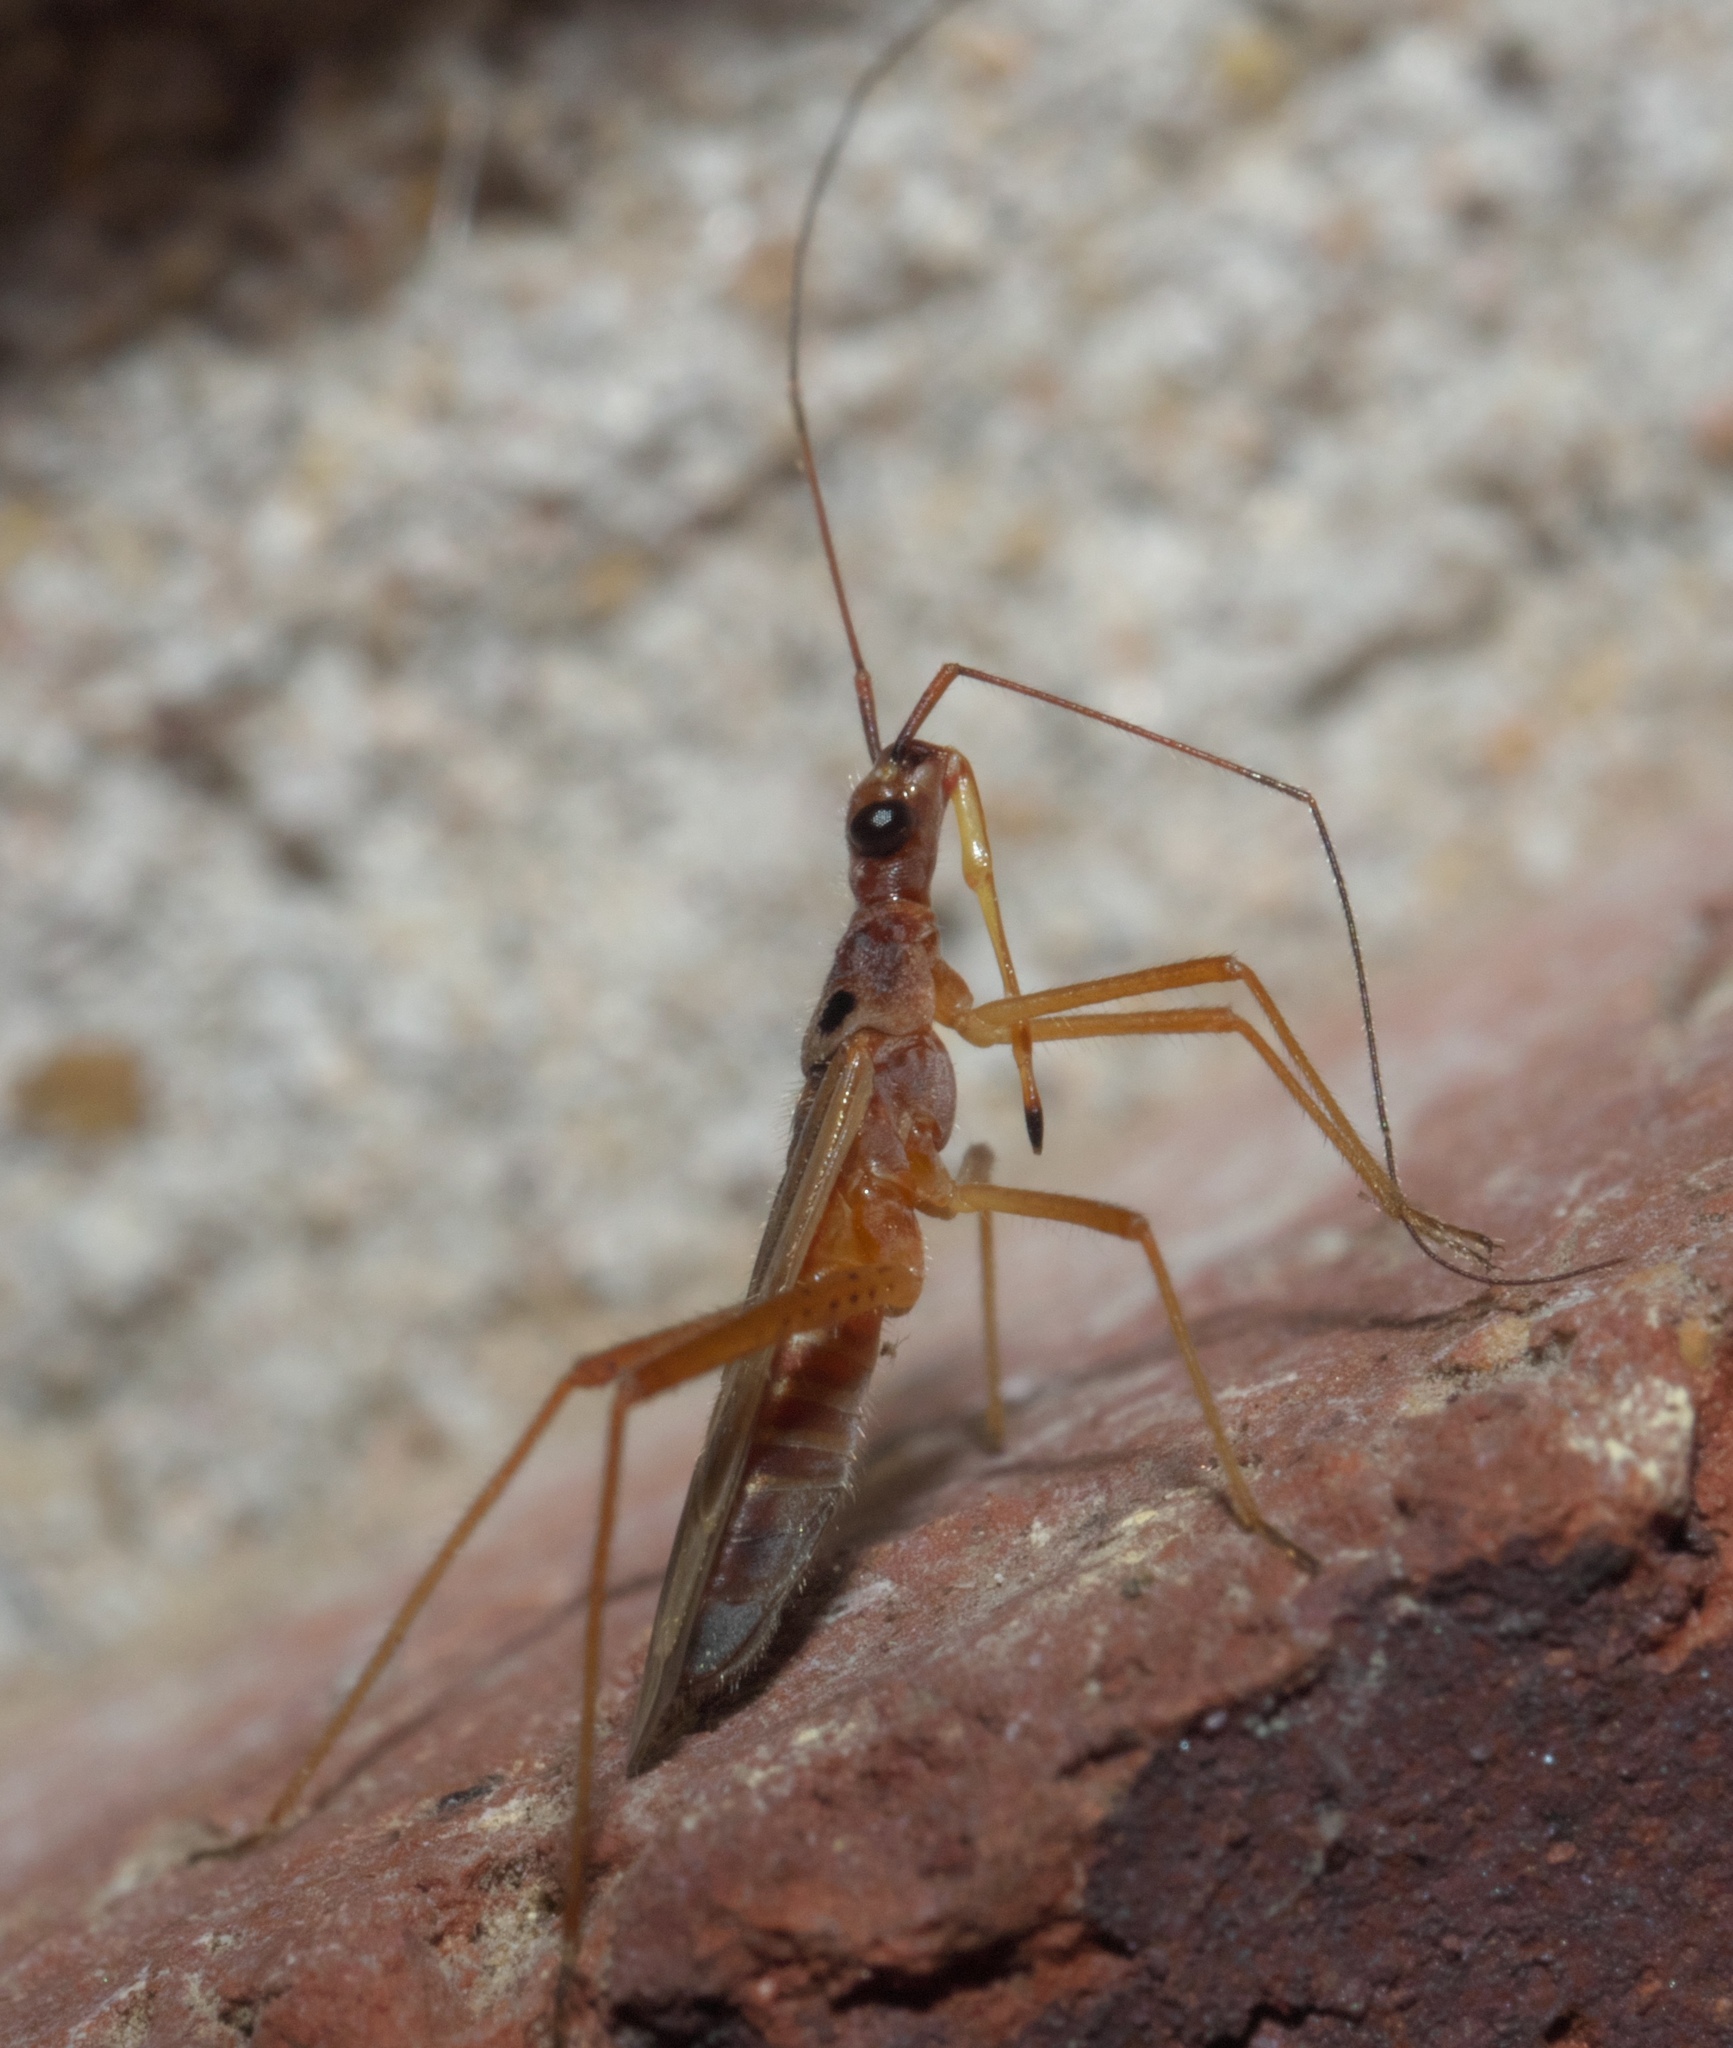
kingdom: Animalia
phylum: Arthropoda
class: Insecta
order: Hemiptera
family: Miridae
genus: Collaria
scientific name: Collaria oculata
